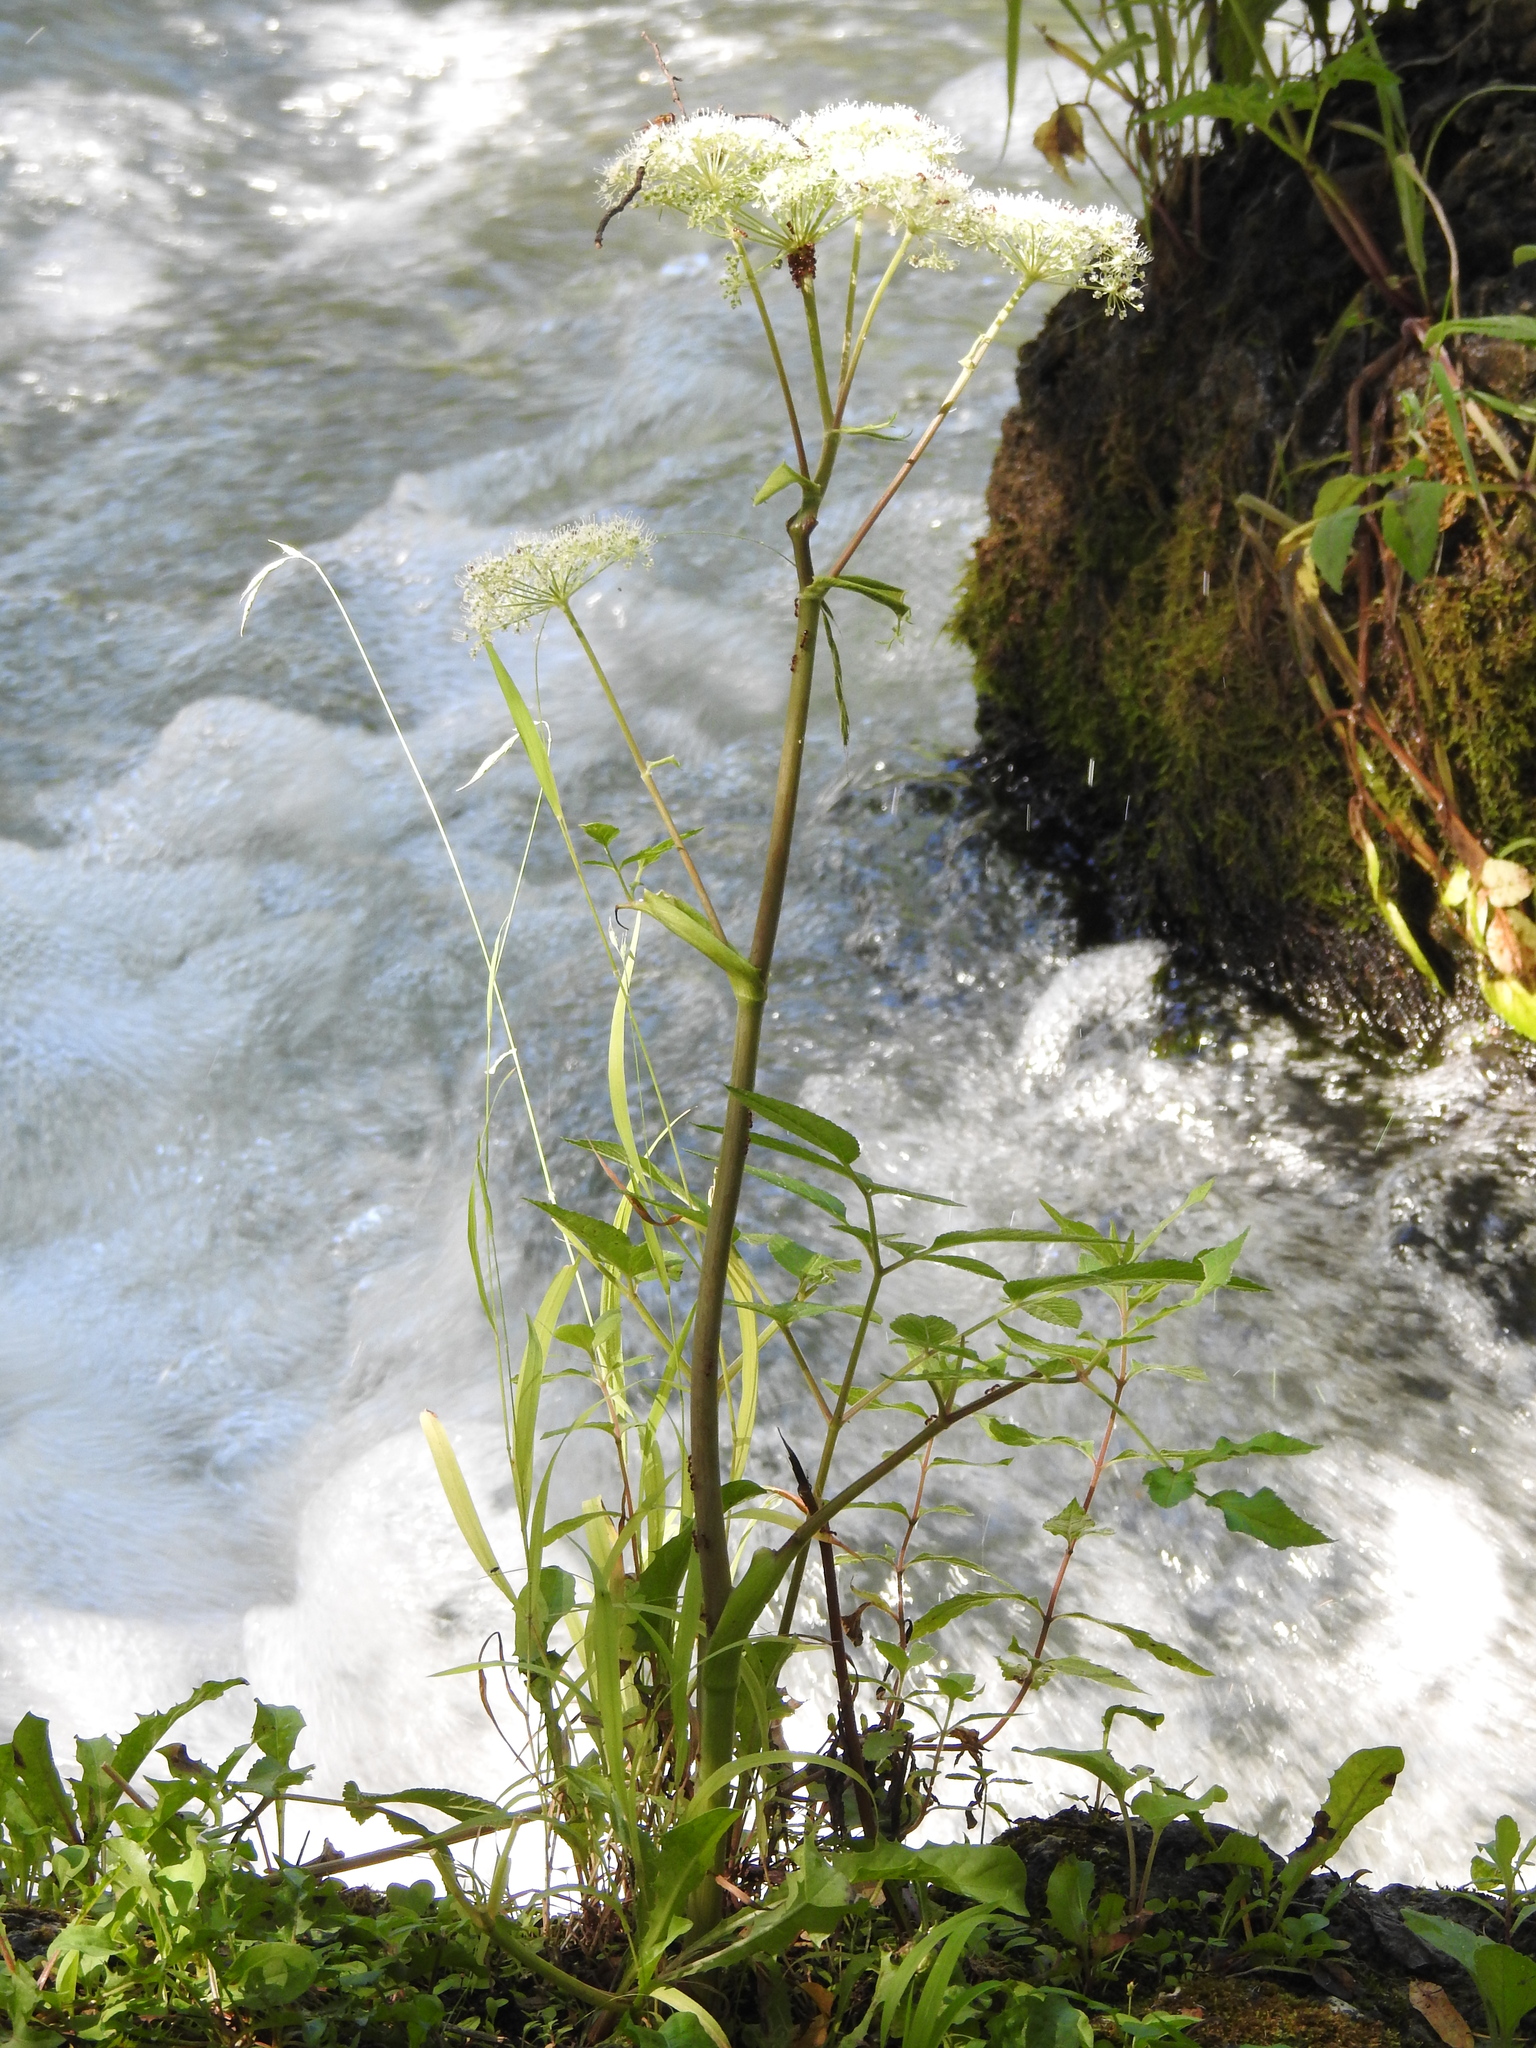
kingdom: Plantae
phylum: Tracheophyta
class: Magnoliopsida
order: Apiales
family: Apiaceae
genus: Angelica
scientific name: Angelica sylvestris
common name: Wild angelica
